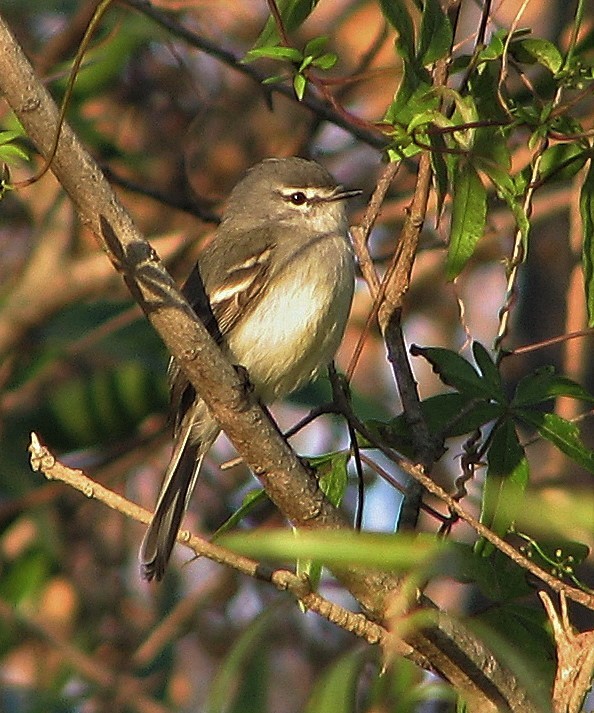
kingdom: Animalia
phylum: Chordata
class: Aves
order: Passeriformes
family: Tyrannidae
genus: Serpophaga
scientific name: Serpophaga griseicapilla
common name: Straneck's tyrannulet
